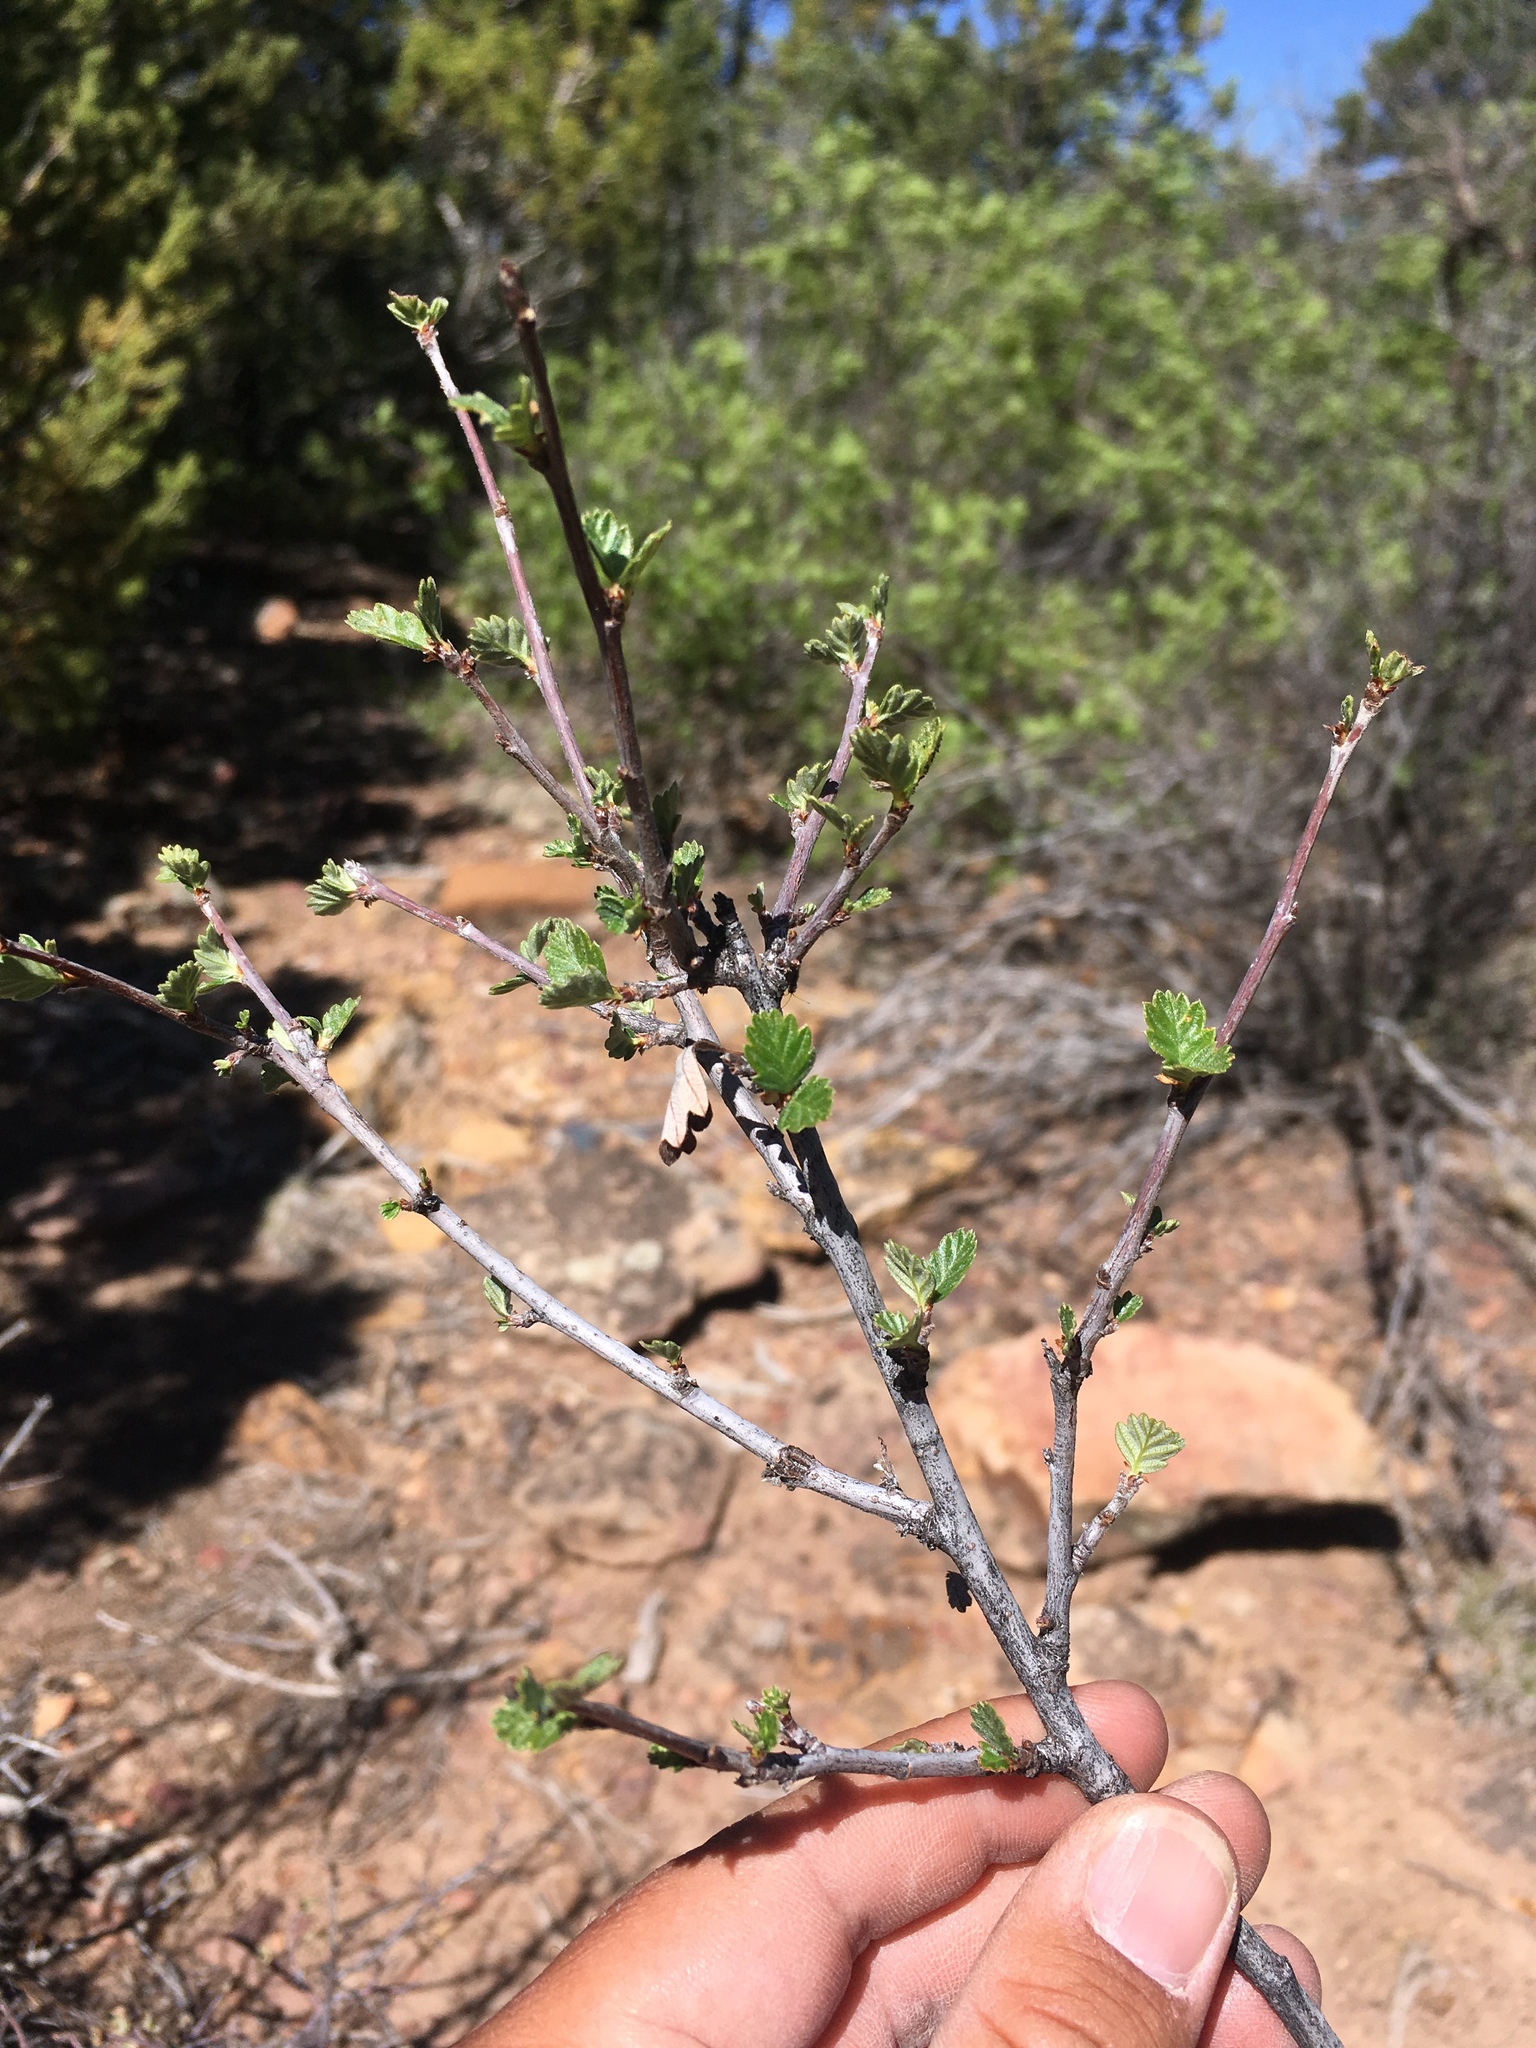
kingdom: Plantae
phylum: Tracheophyta
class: Magnoliopsida
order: Rosales
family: Rosaceae
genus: Cercocarpus
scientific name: Cercocarpus montanus
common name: Alder-leaf cercocarpus
